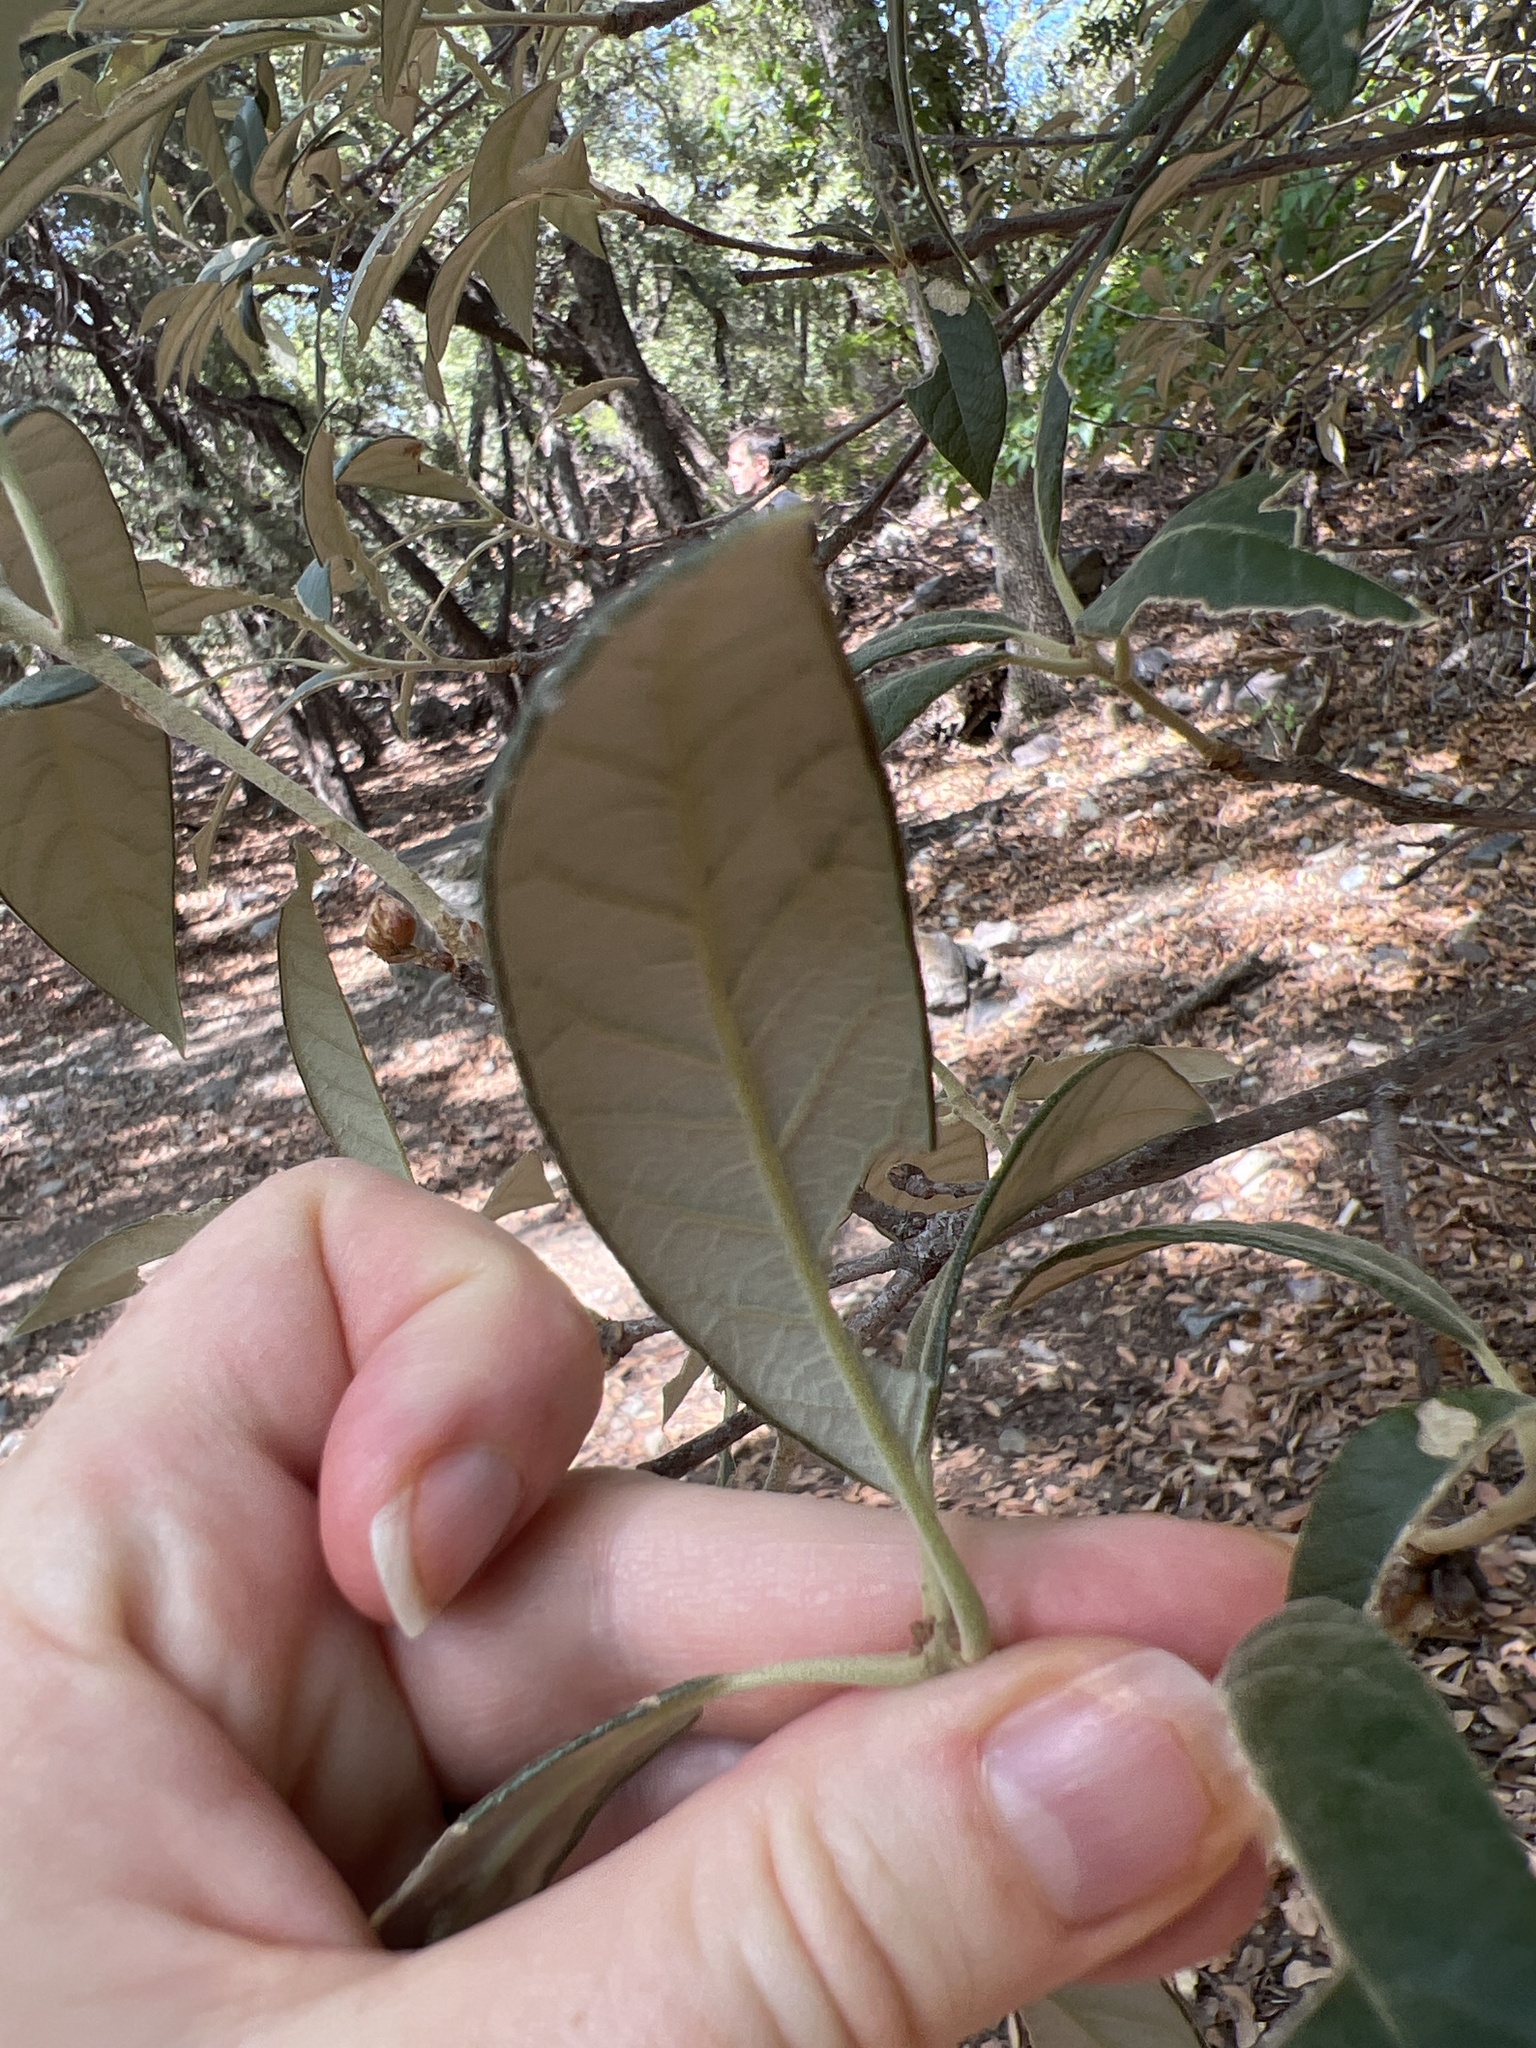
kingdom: Plantae
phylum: Tracheophyta
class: Magnoliopsida
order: Fagales
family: Fagaceae
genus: Quercus
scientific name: Quercus hypoleucoides
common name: Silverleaf oak
